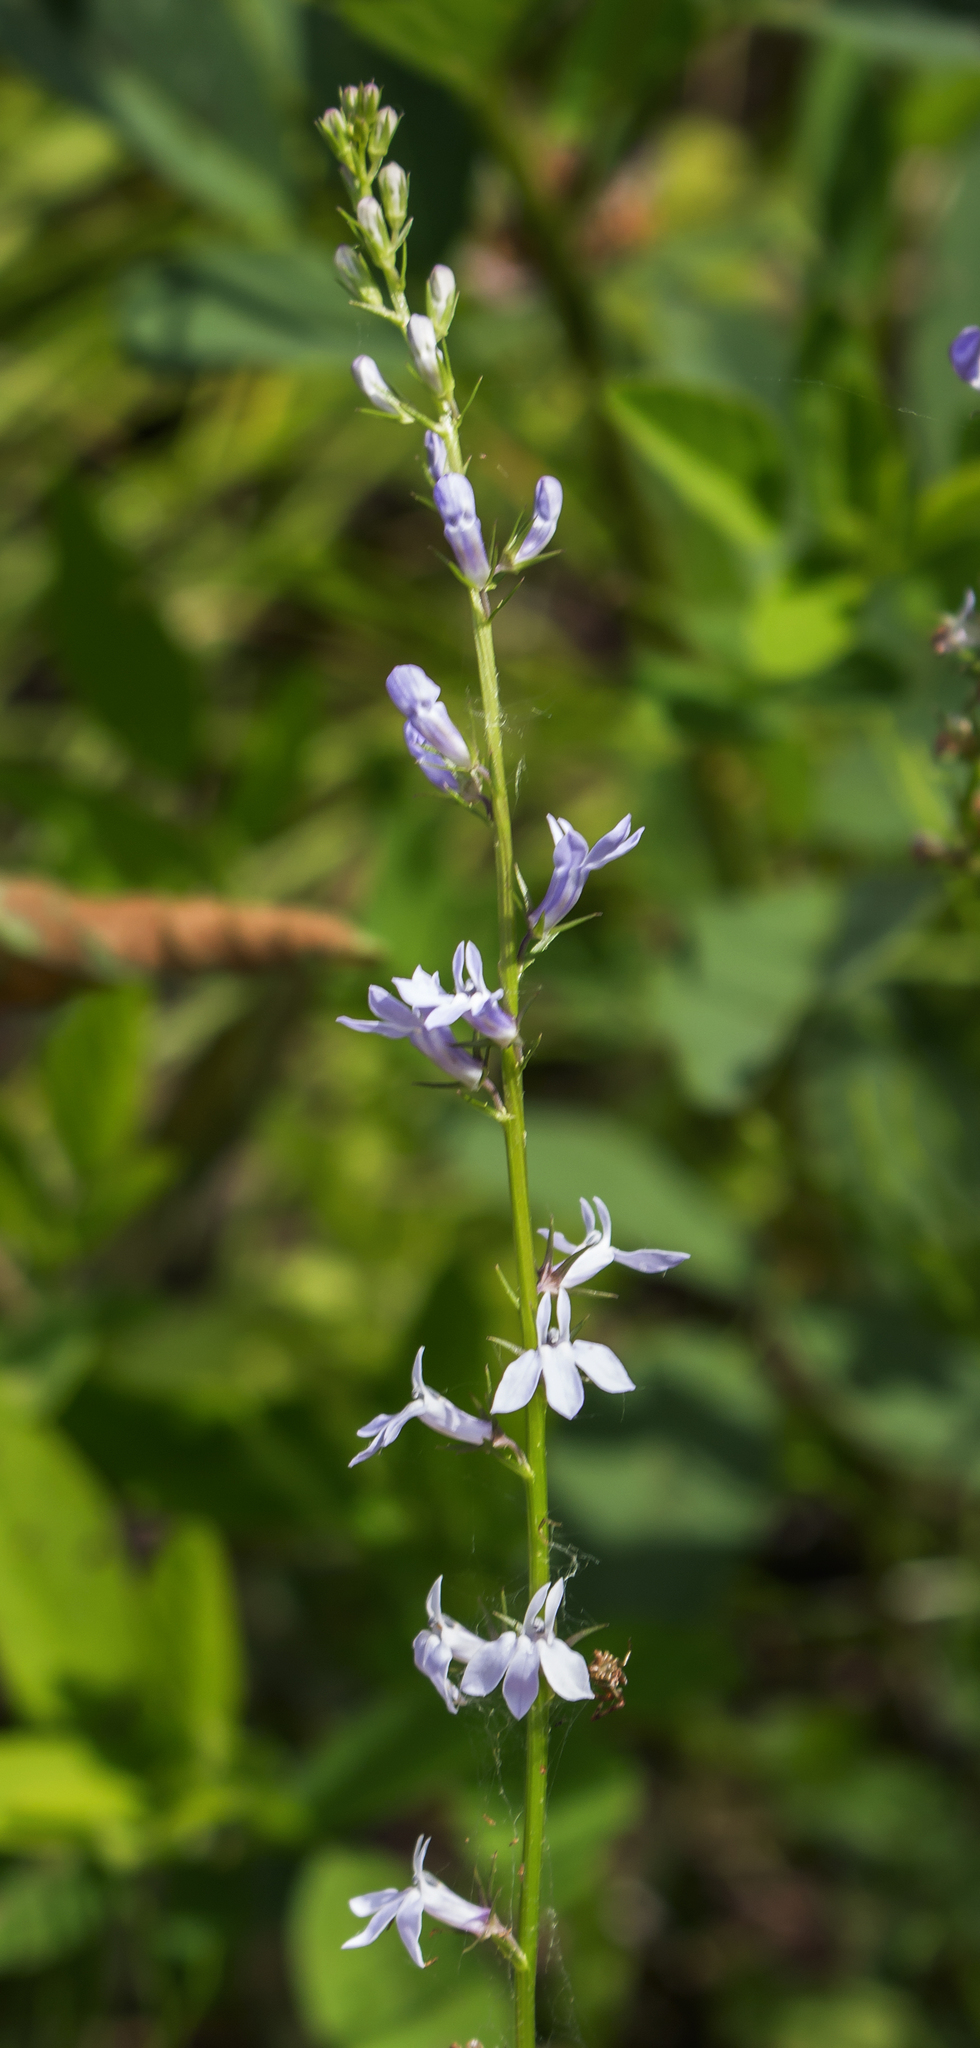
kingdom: Plantae
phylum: Tracheophyta
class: Magnoliopsida
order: Asterales
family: Campanulaceae
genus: Lobelia
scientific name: Lobelia spicata
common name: Pale-spike lobelia
